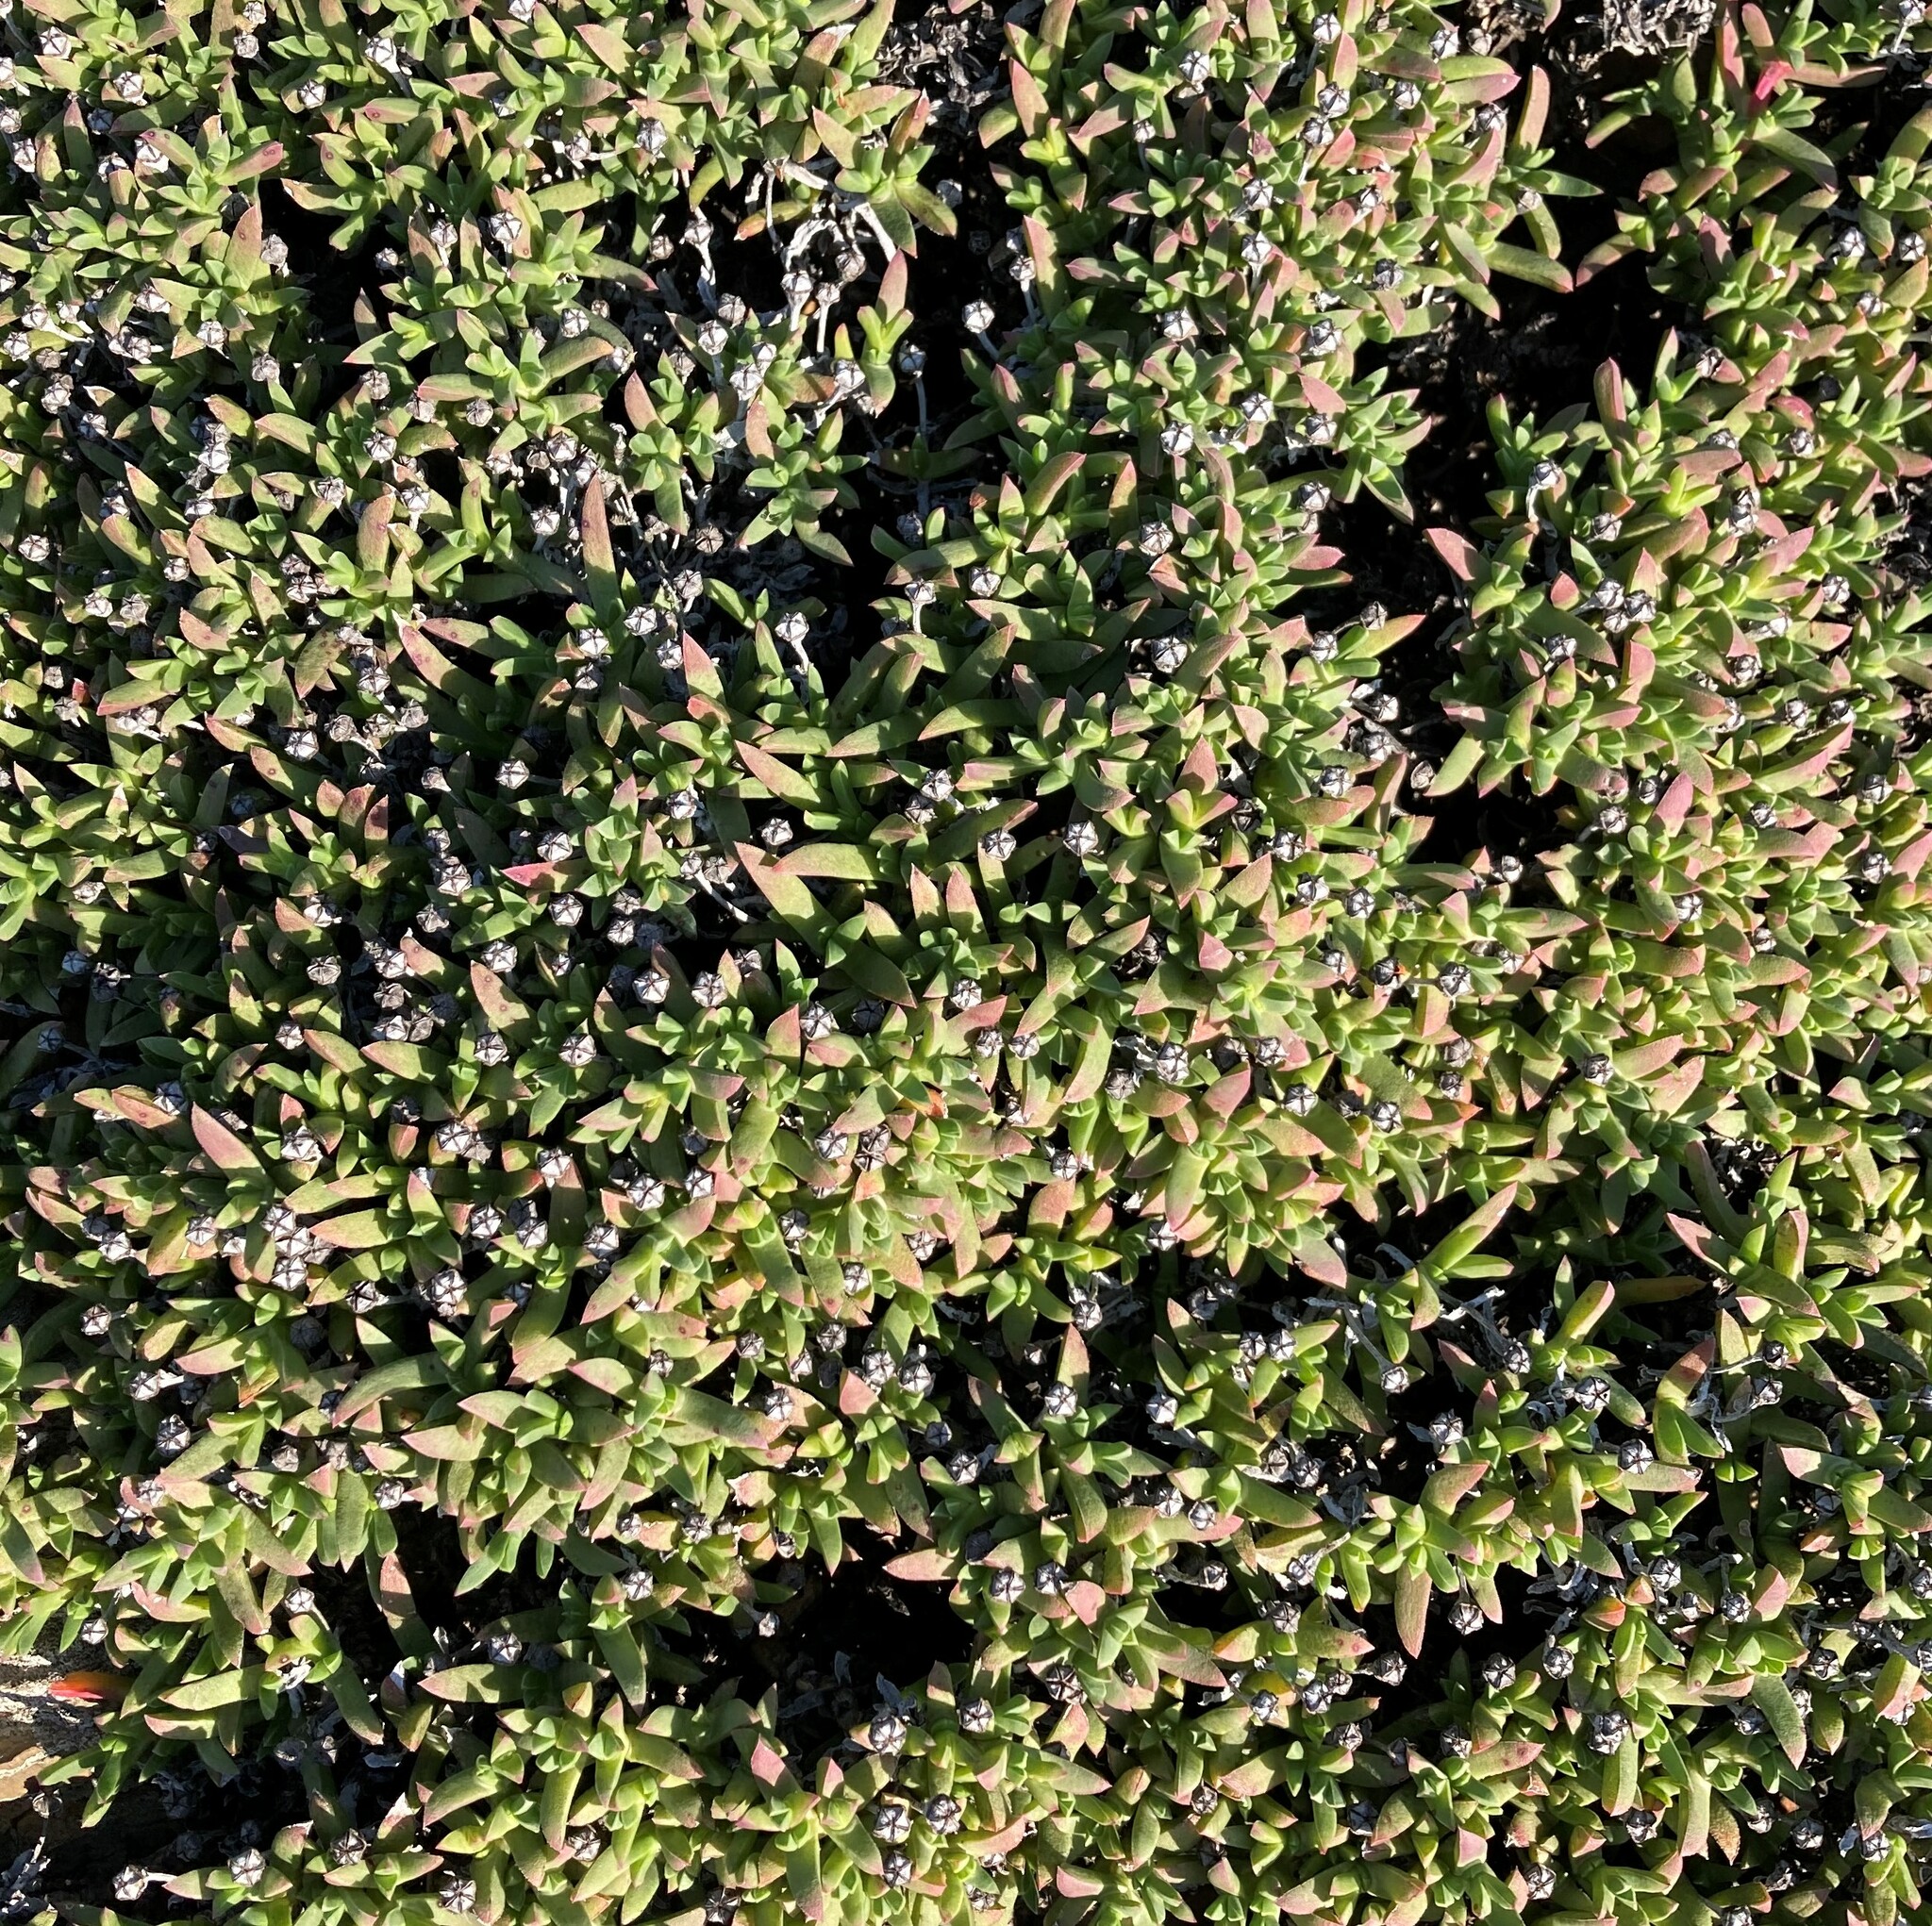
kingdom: Plantae
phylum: Tracheophyta
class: Magnoliopsida
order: Caryophyllales
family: Aizoaceae
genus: Ruschia
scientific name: Ruschia lineolata
